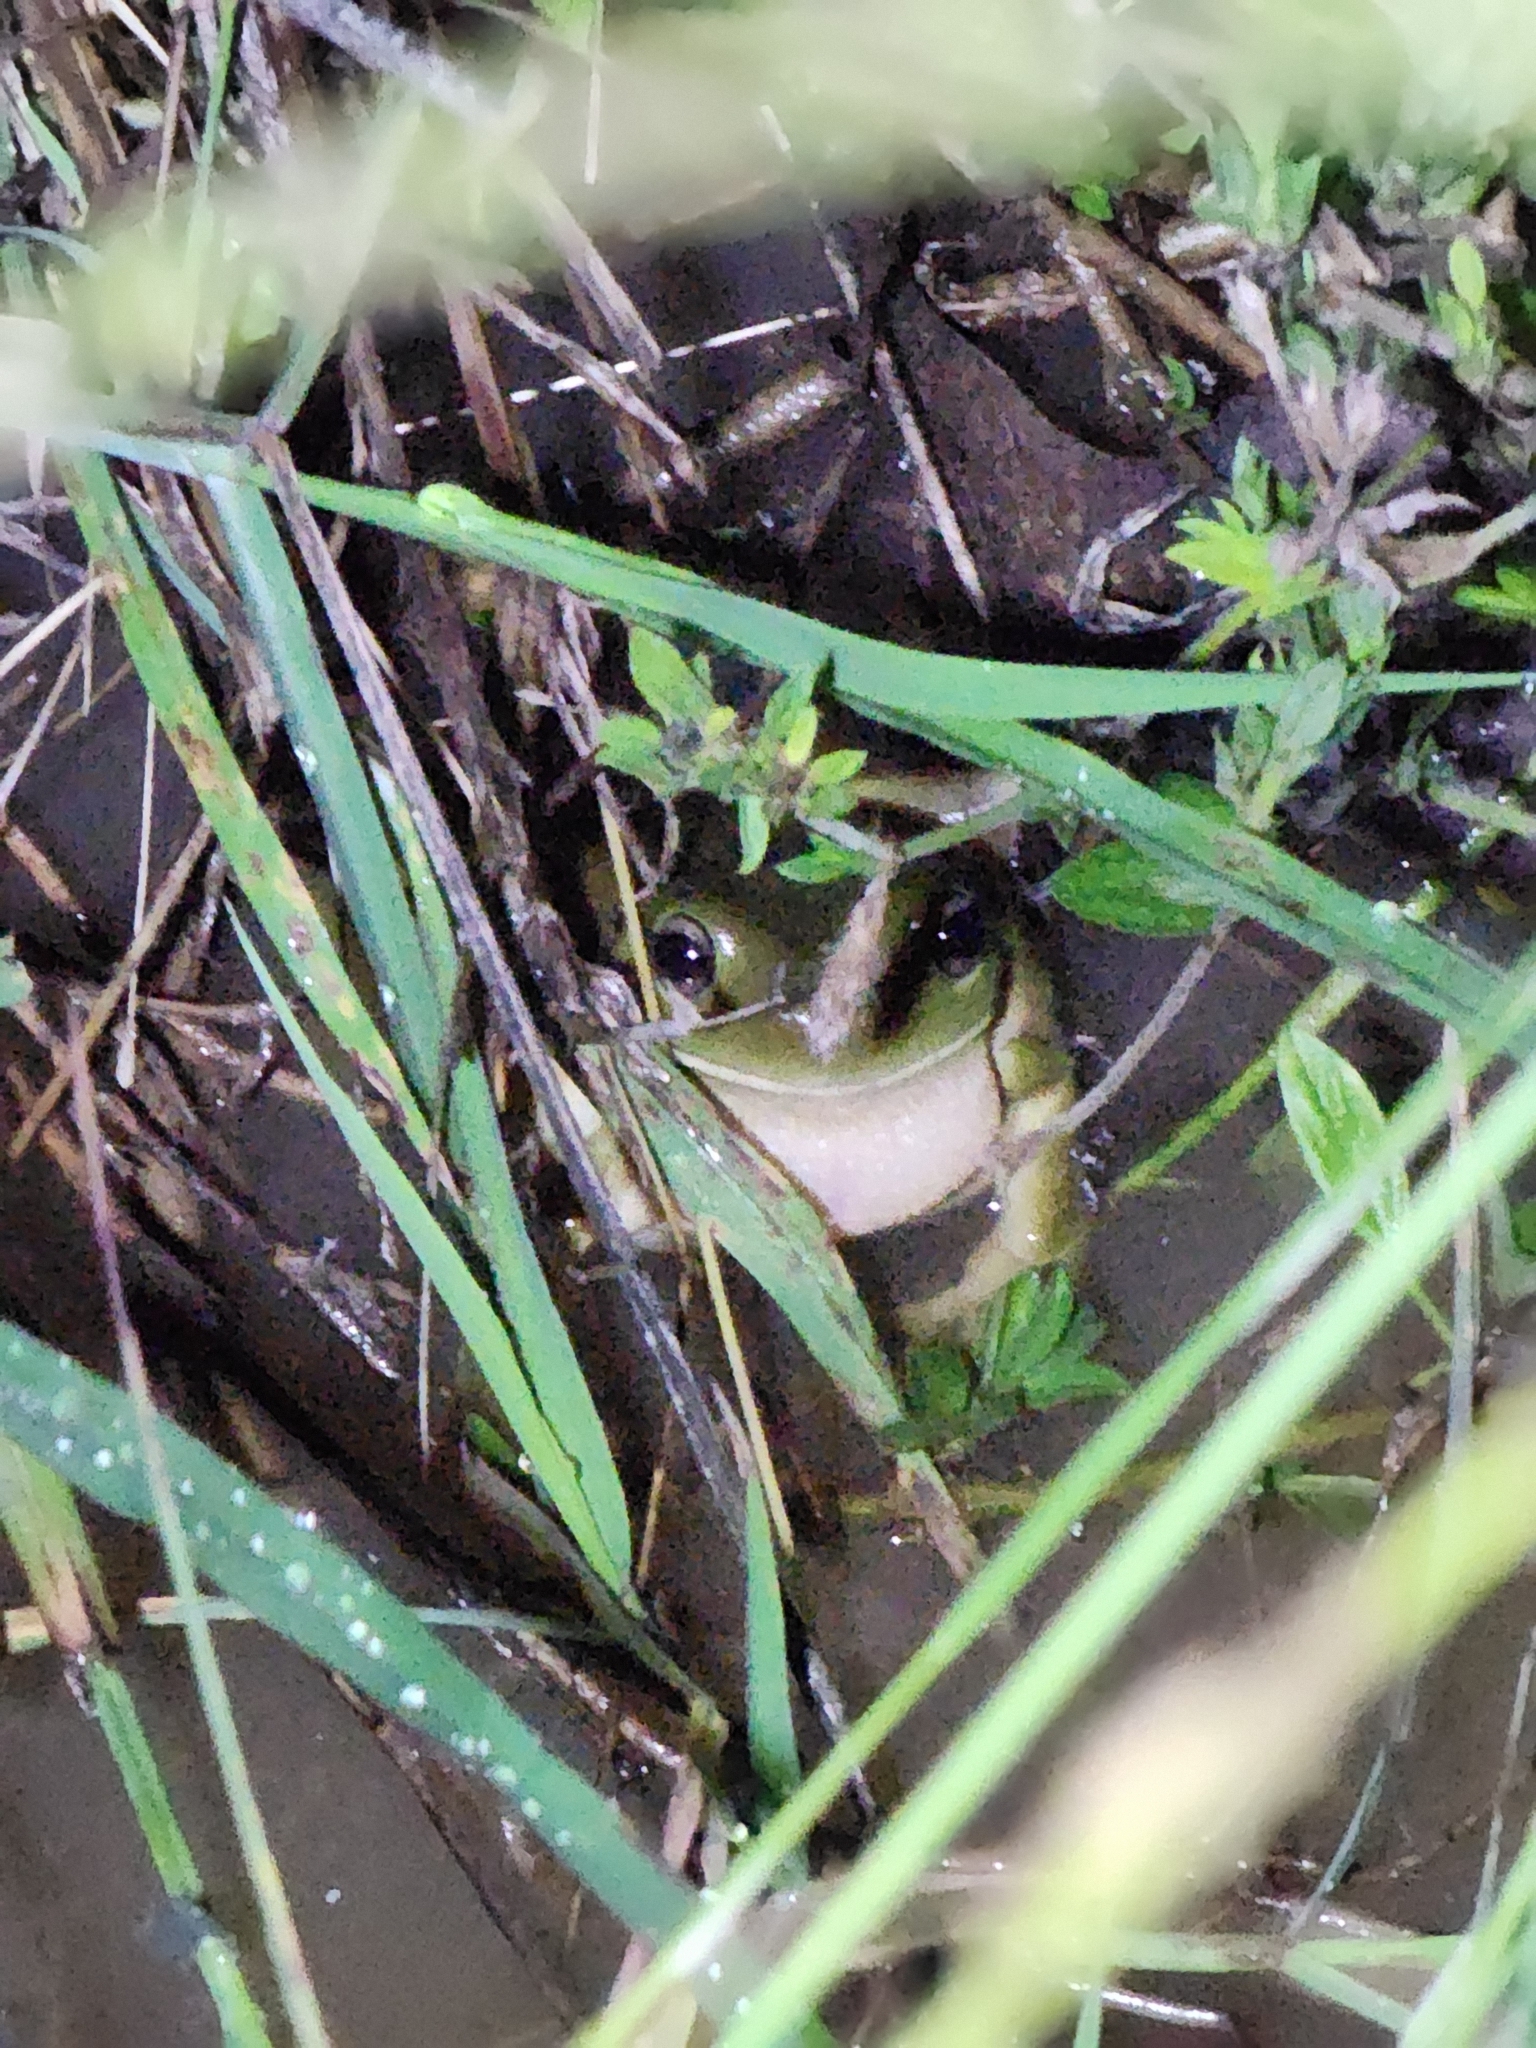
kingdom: Animalia
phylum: Chordata
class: Amphibia
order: Anura
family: Pelodryadidae
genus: Ranoidea
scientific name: Ranoidea caerulea
